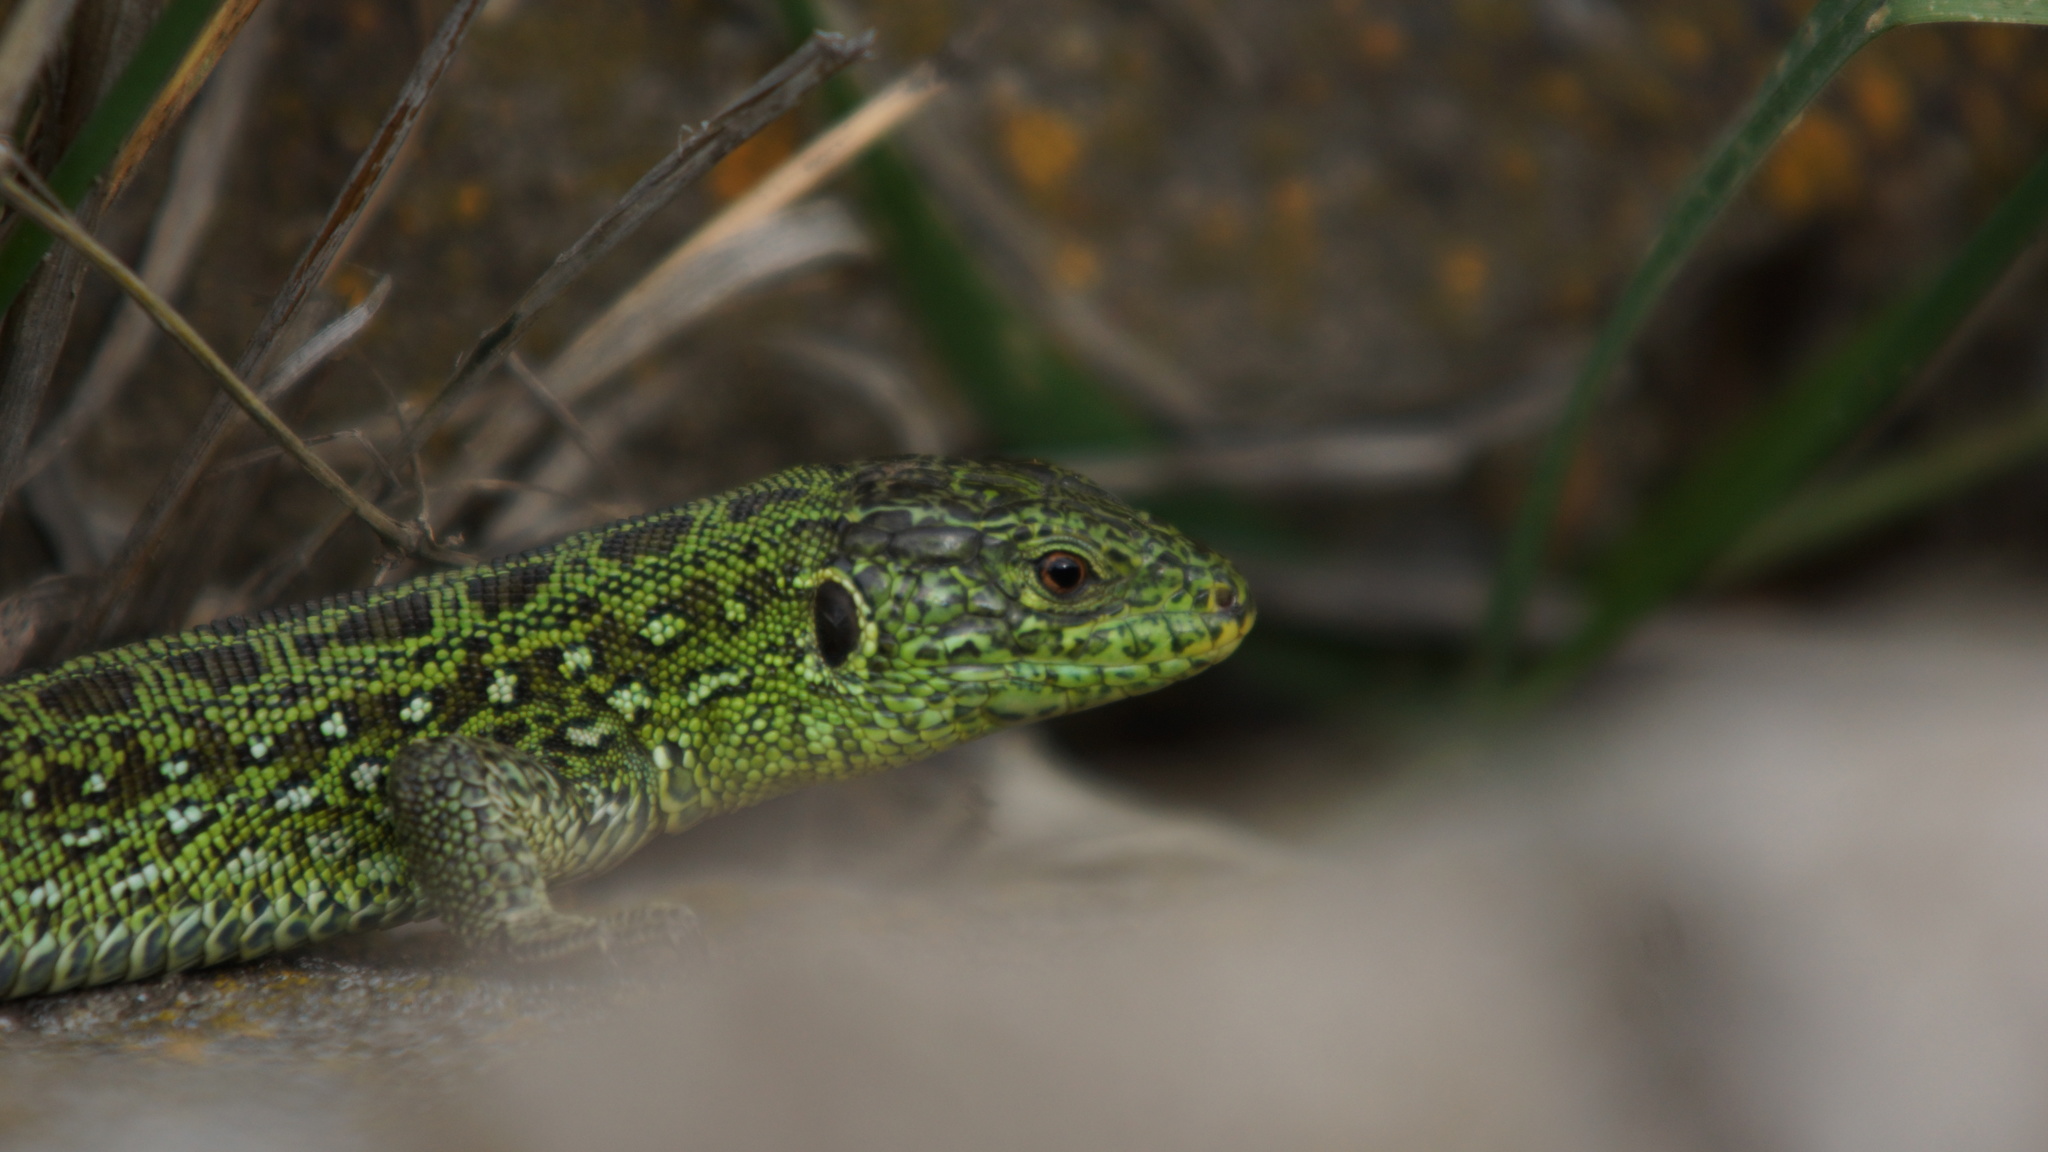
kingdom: Animalia
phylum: Chordata
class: Squamata
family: Lacertidae
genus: Lacerta
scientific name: Lacerta agilis
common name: Sand lizard
